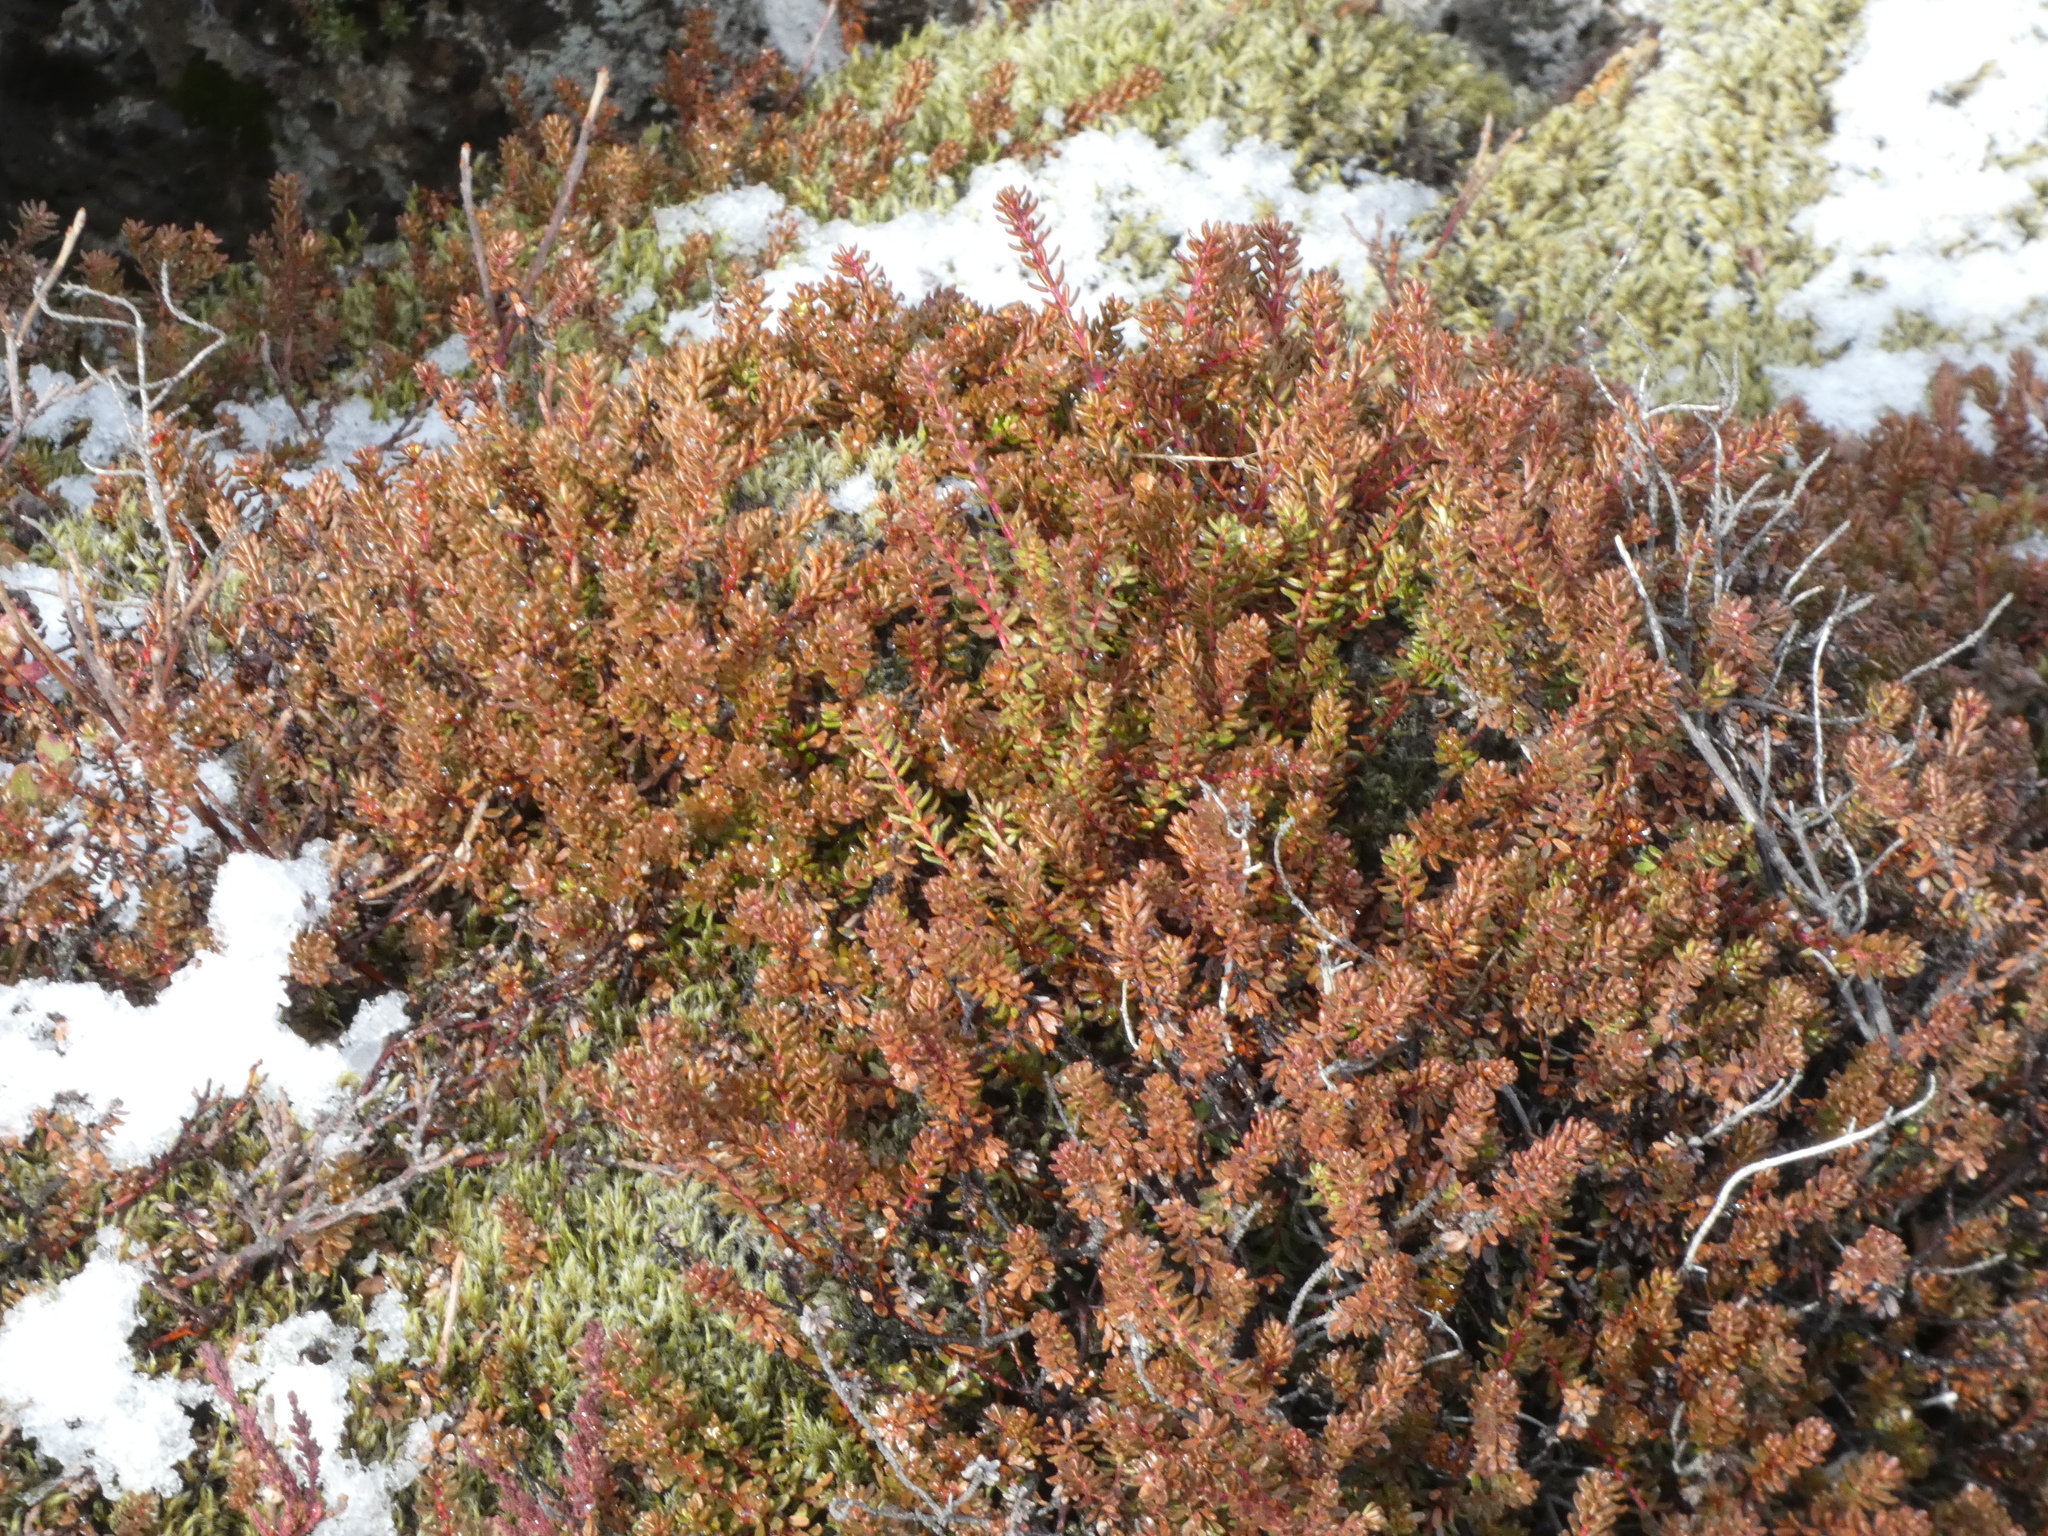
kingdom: Plantae
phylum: Tracheophyta
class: Magnoliopsida
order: Ericales
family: Ericaceae
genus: Empetrum
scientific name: Empetrum nigrum
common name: Black crowberry
